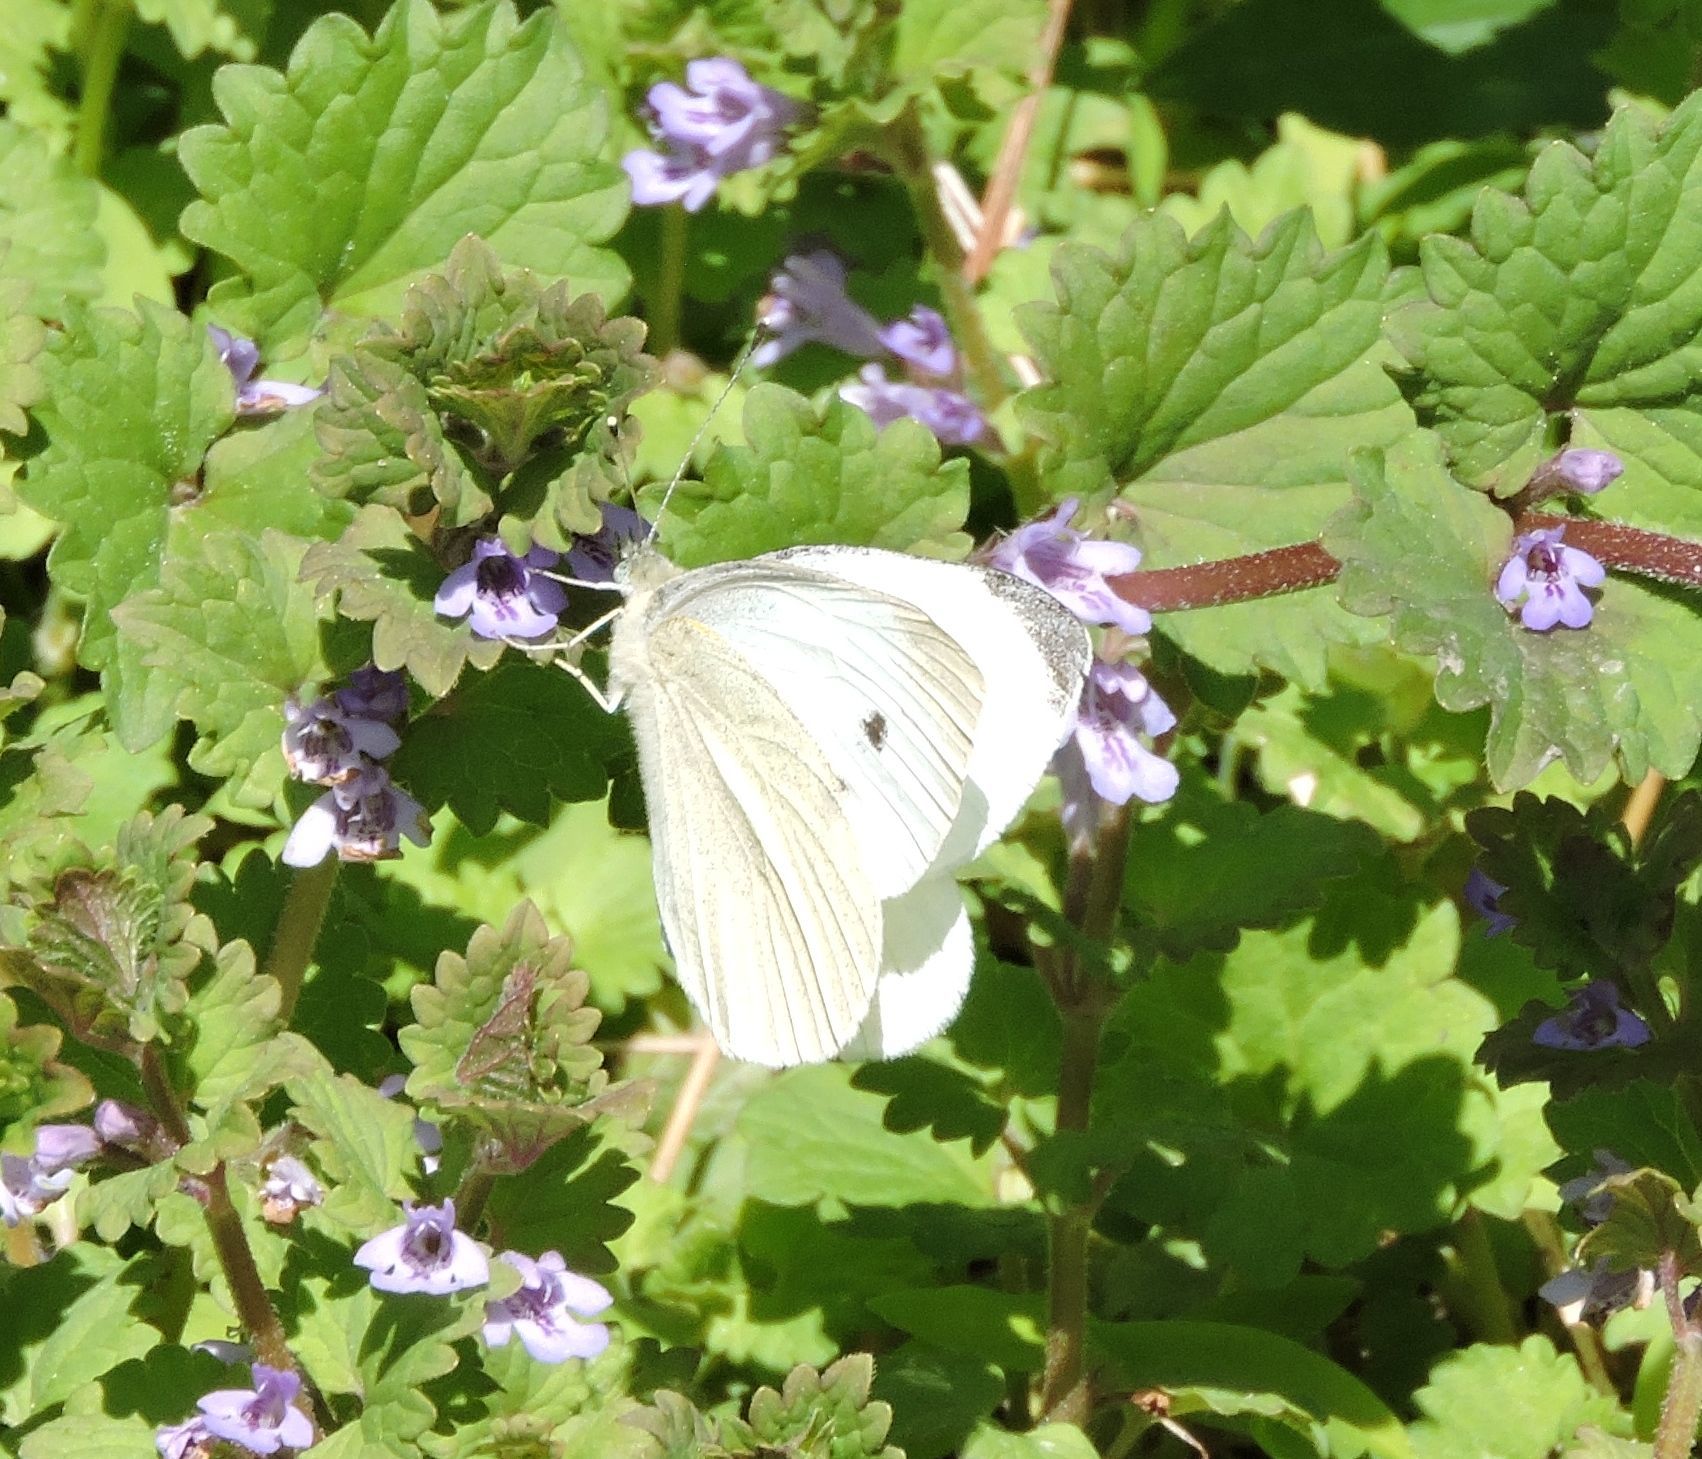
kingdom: Animalia
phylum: Arthropoda
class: Insecta
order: Lepidoptera
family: Pieridae
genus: Pieris
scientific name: Pieris rapae
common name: Small white
